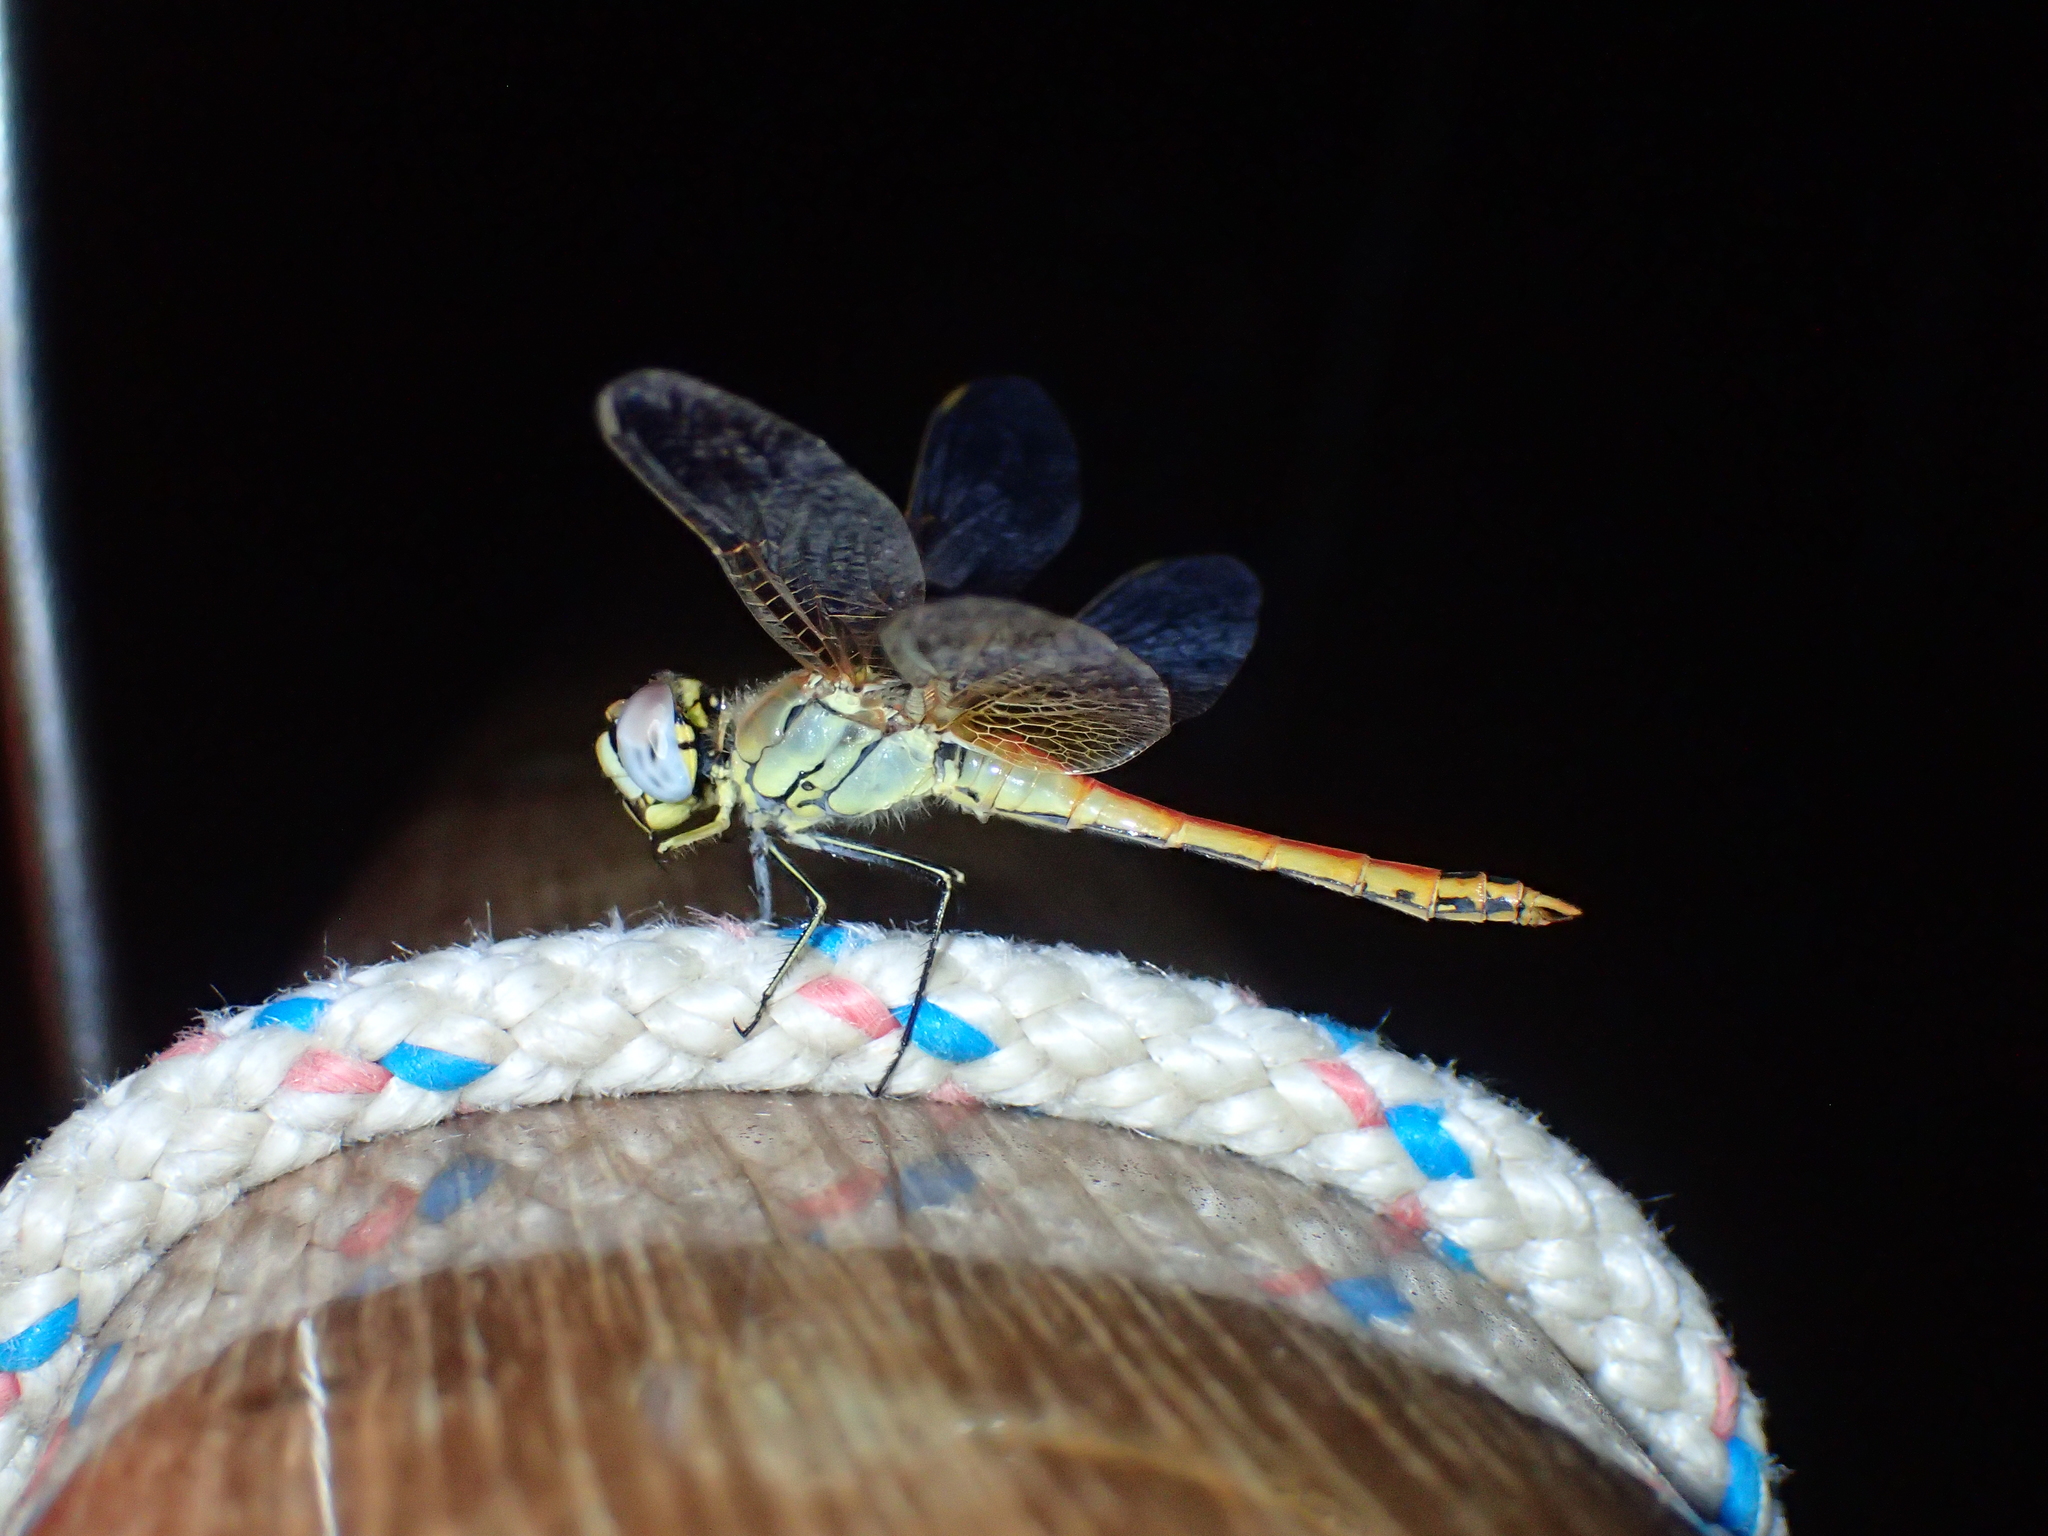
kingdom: Animalia
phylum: Arthropoda
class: Insecta
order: Odonata
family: Libellulidae
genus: Sympetrum
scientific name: Sympetrum fonscolombii
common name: Red-veined darter
